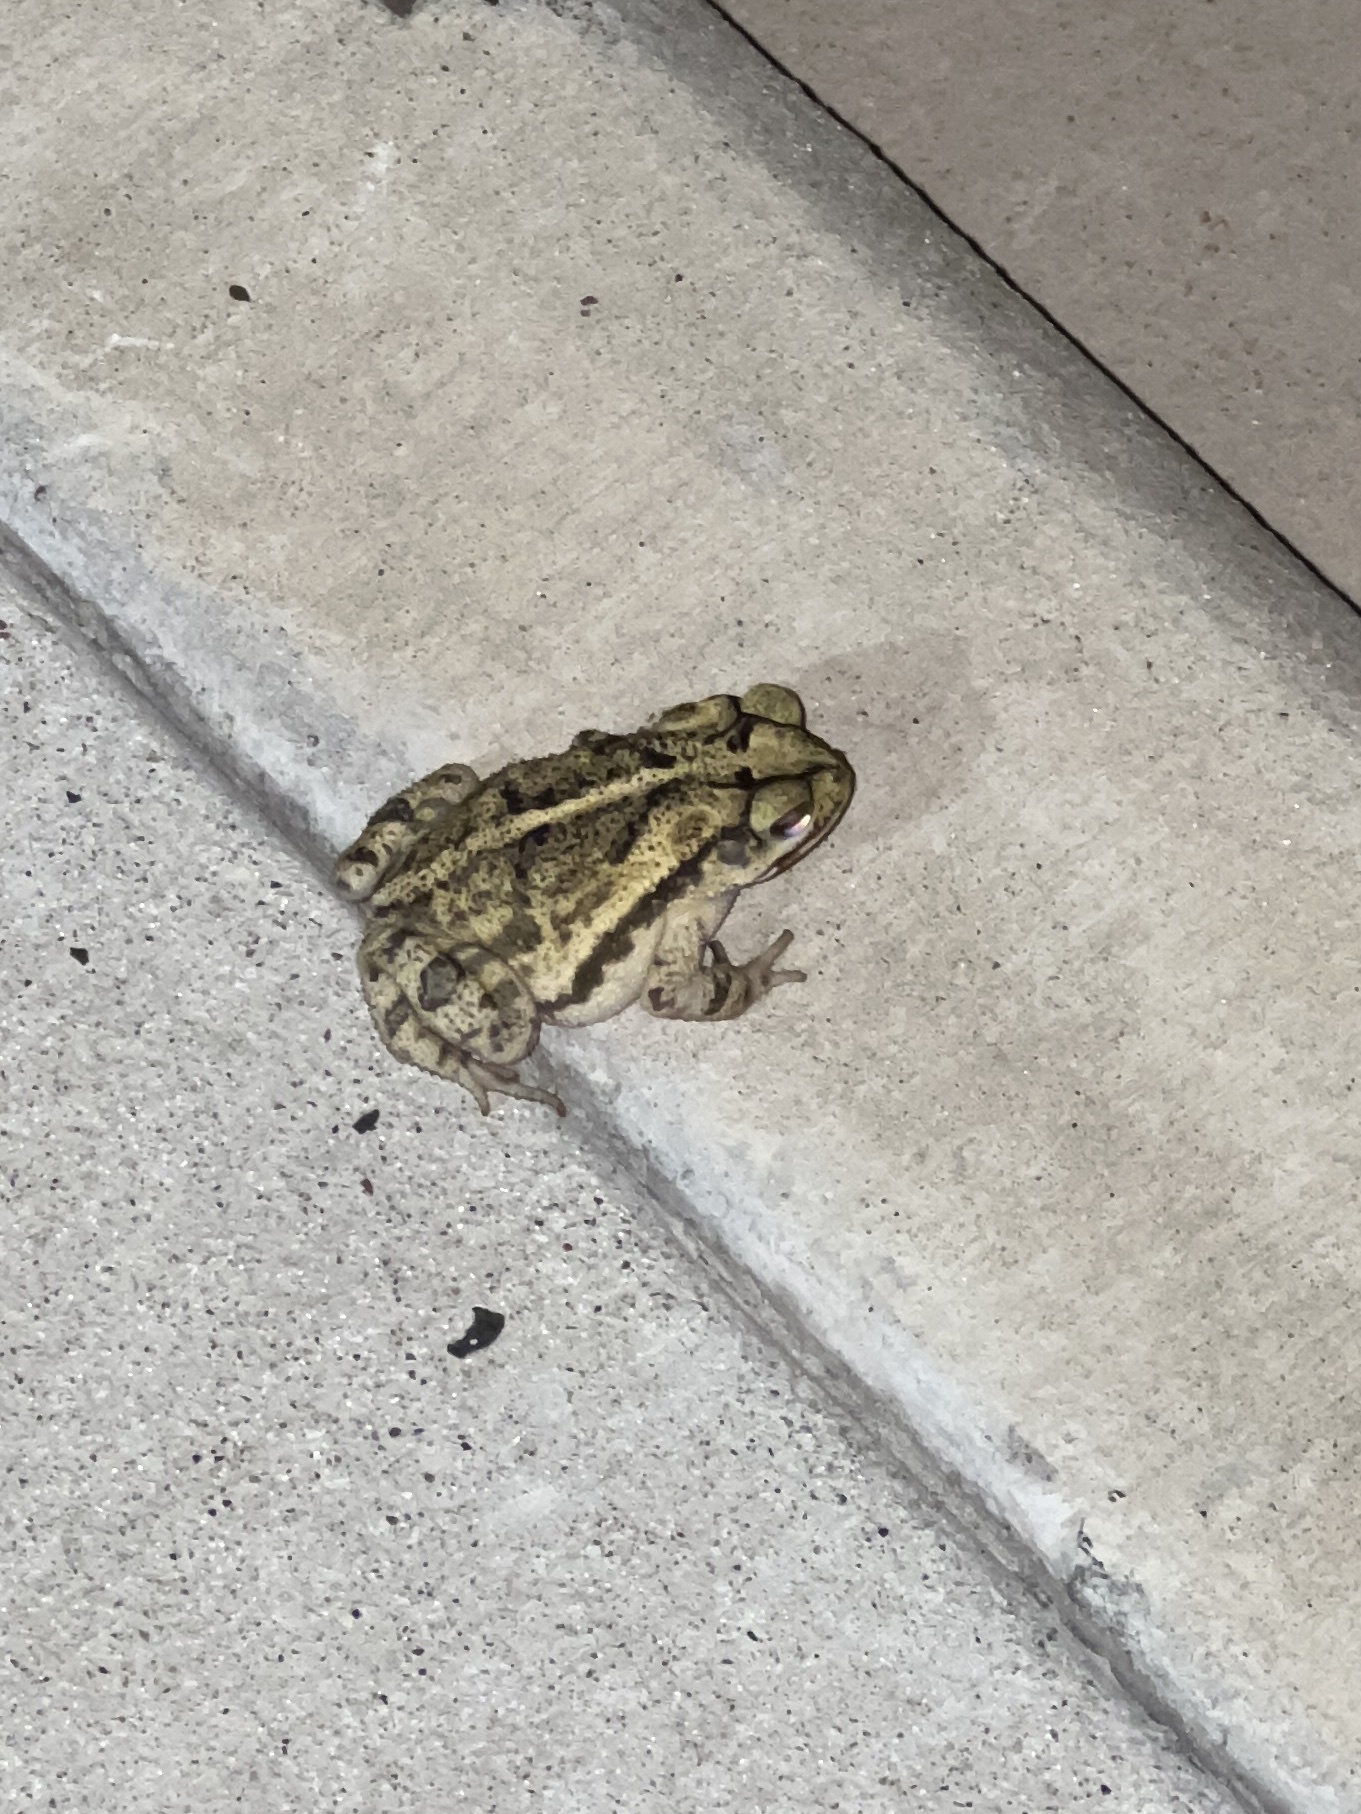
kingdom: Animalia
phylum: Chordata
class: Amphibia
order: Anura
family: Bufonidae
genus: Incilius
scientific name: Incilius nebulifer
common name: Gulf coast toad
